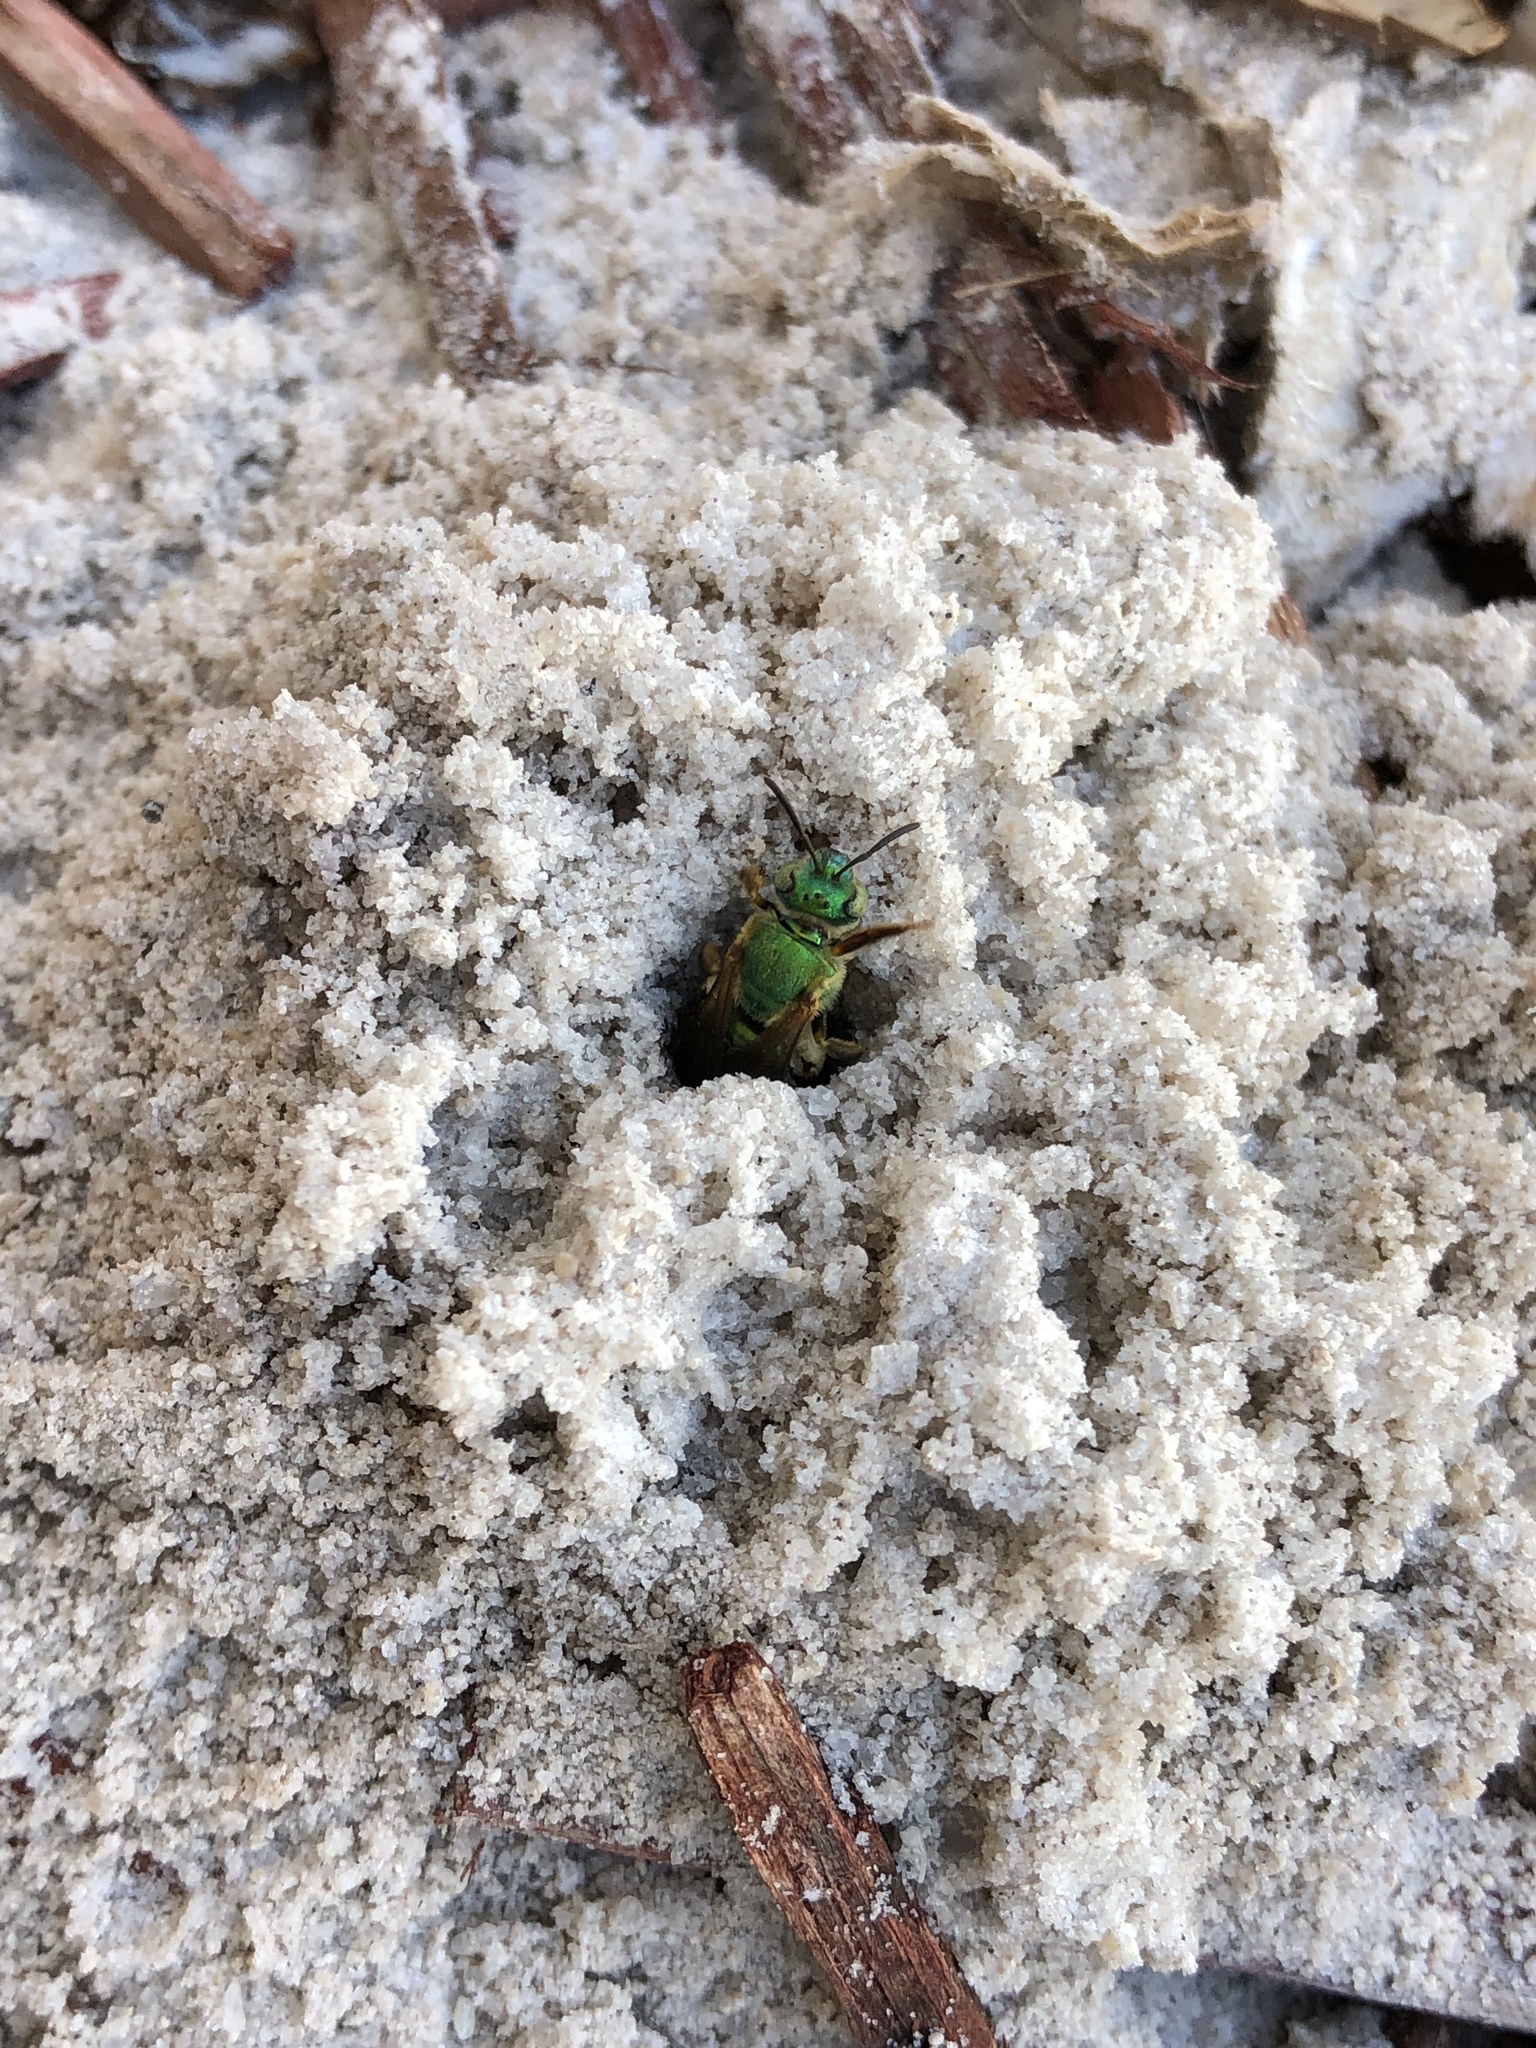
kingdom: Animalia
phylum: Arthropoda
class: Insecta
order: Hymenoptera
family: Halictidae
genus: Agapostemon
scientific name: Agapostemon splendens
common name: Brown-winged striped sweat bee
